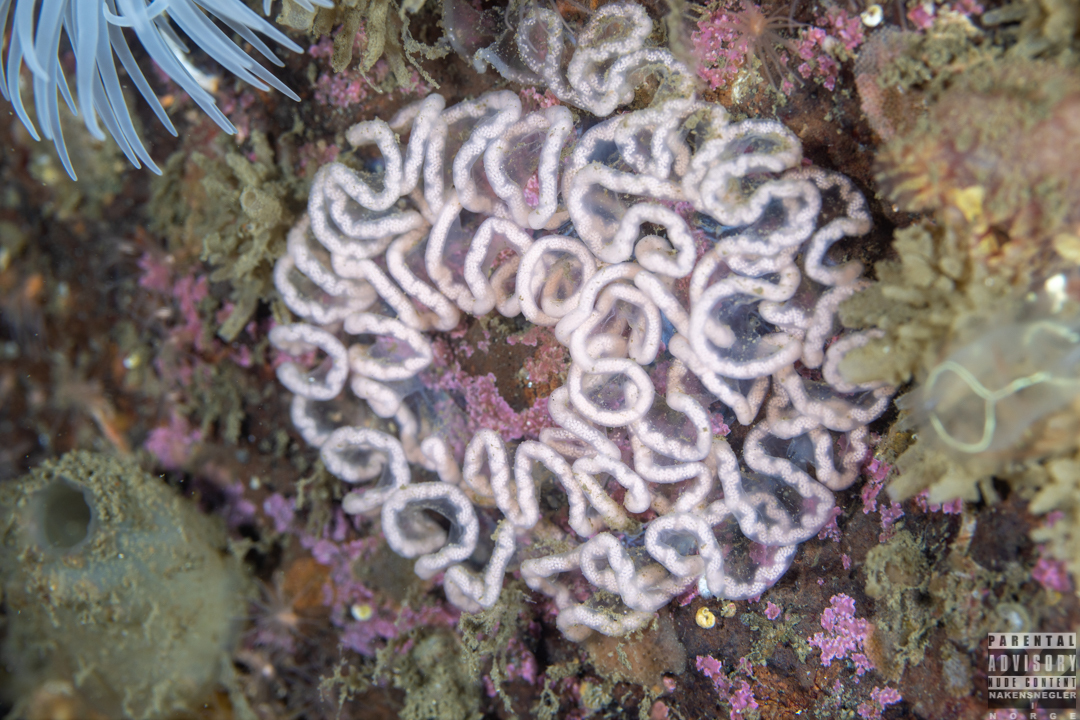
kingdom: Animalia
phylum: Mollusca
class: Gastropoda
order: Nudibranchia
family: Tritoniidae
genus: Tritonia
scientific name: Tritonia hombergii
